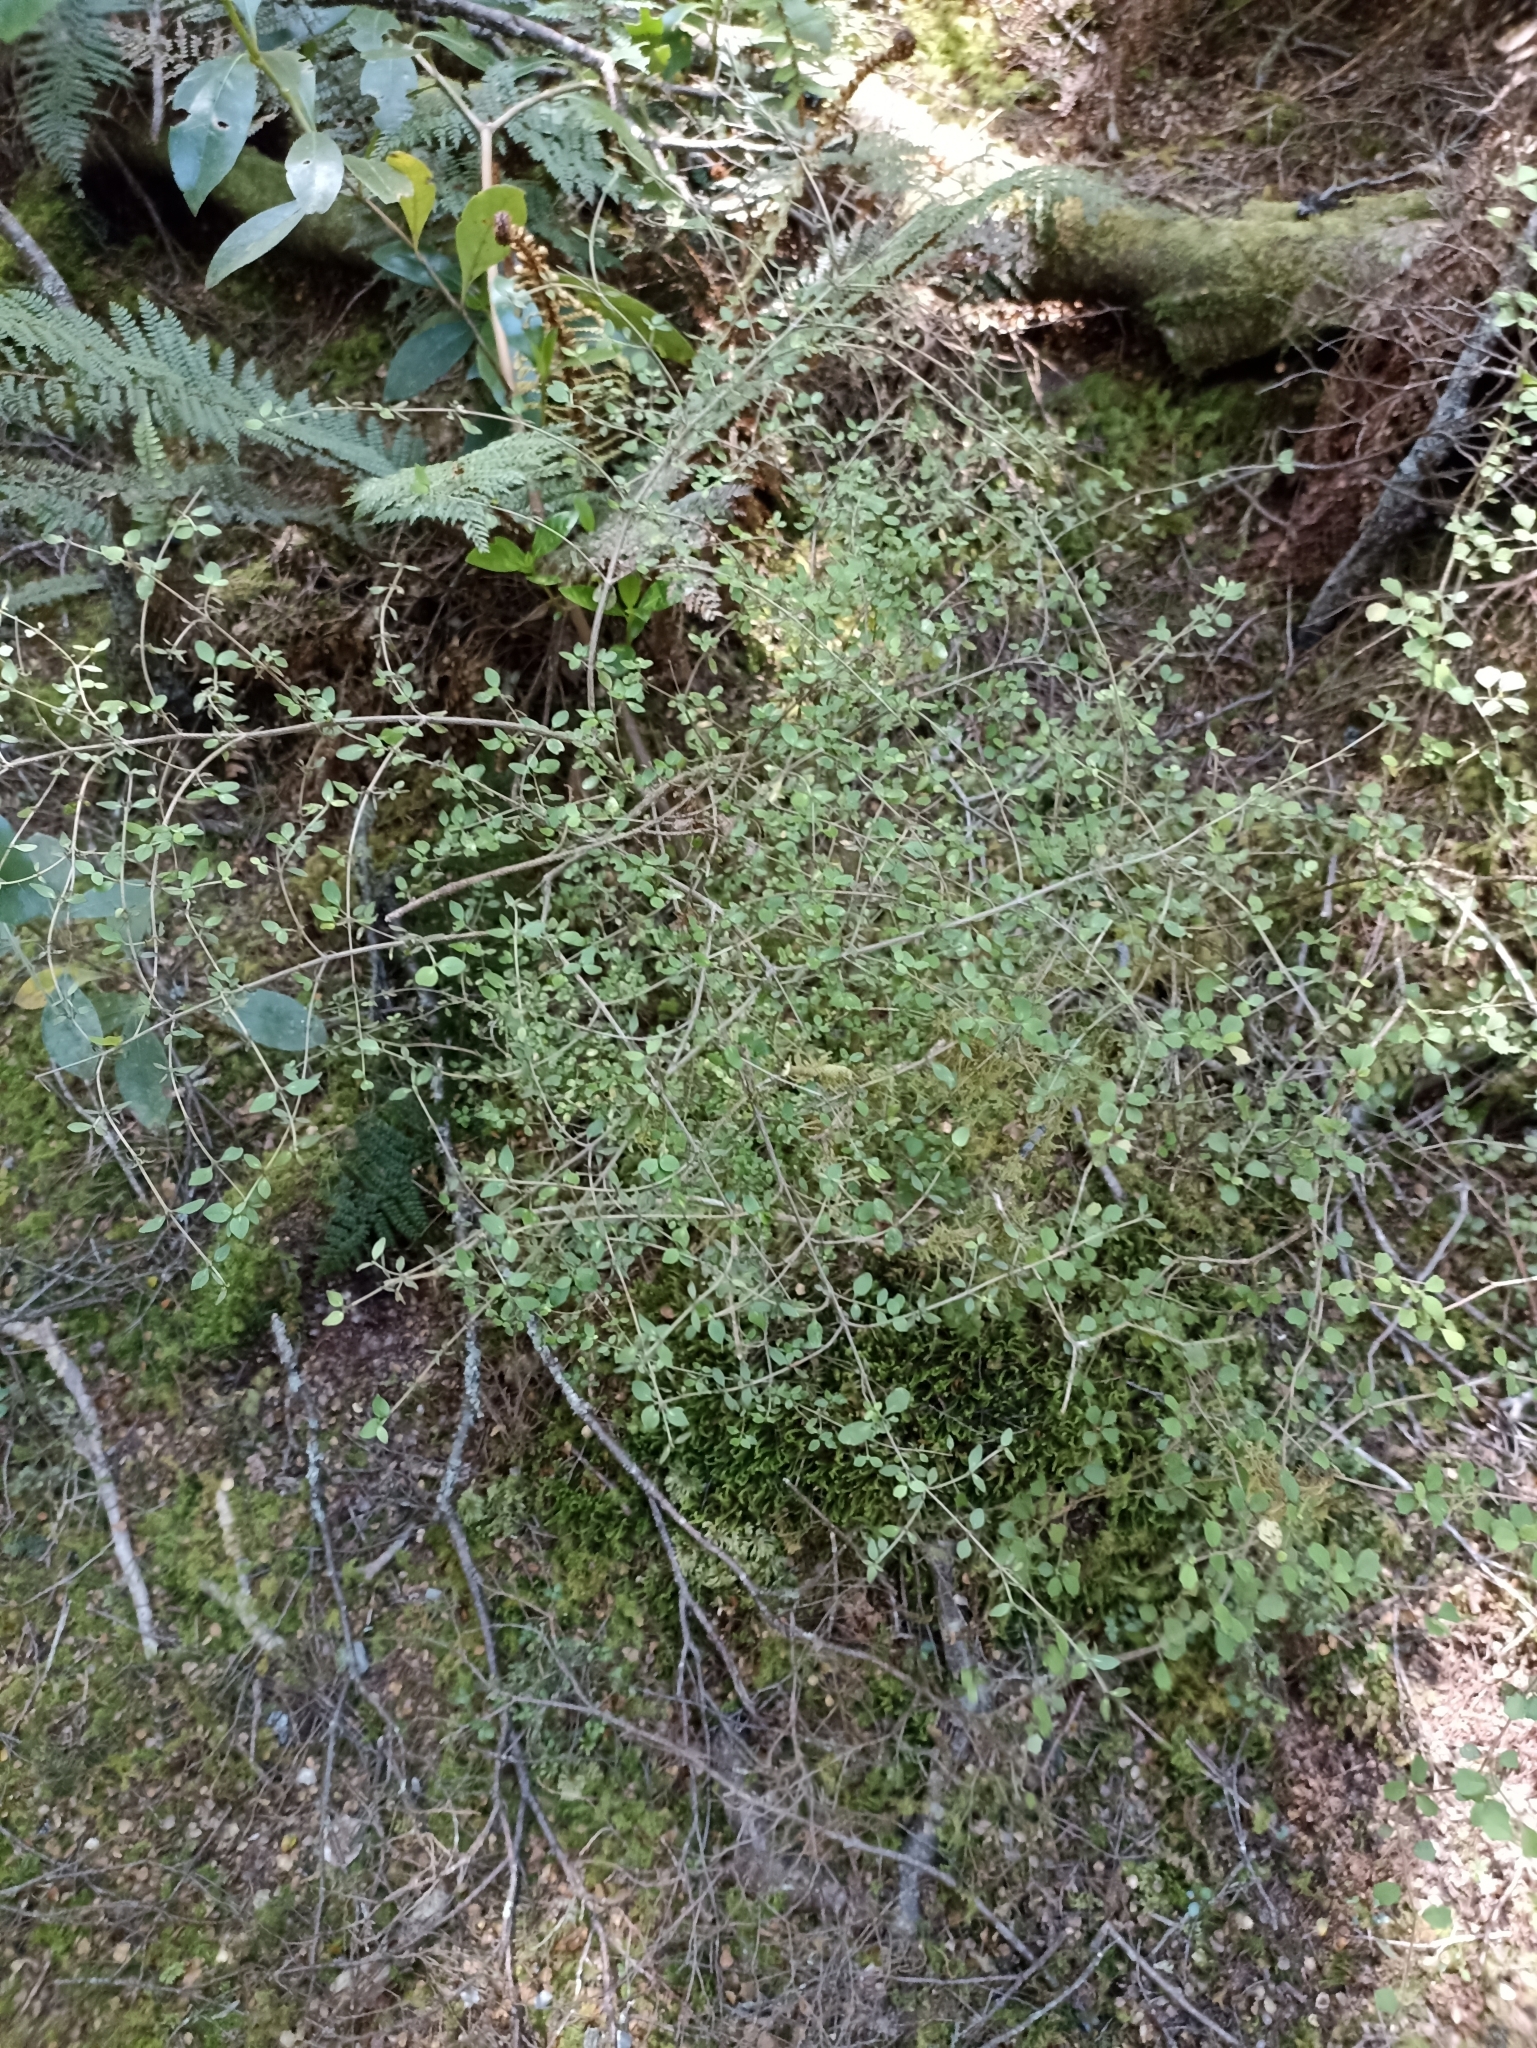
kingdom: Plantae
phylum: Tracheophyta
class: Magnoliopsida
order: Gentianales
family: Rubiaceae
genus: Coprosma
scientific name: Coprosma rhamnoides
